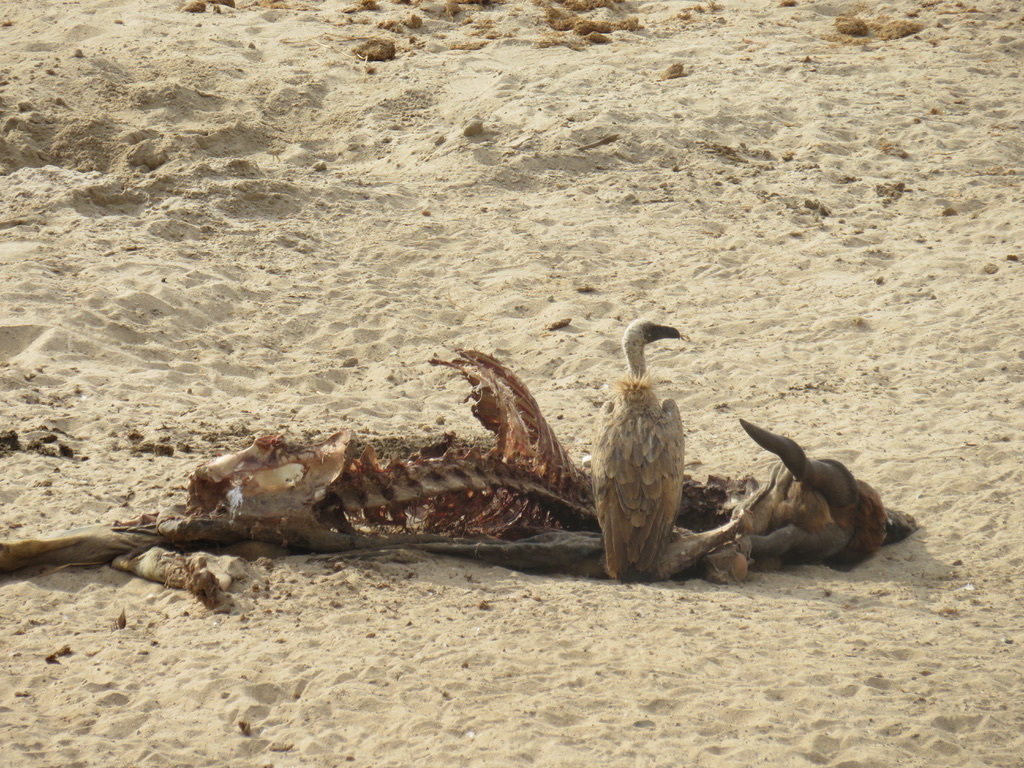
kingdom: Animalia
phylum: Chordata
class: Aves
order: Accipitriformes
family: Accipitridae
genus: Gyps
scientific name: Gyps africanus
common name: White-backed vulture
